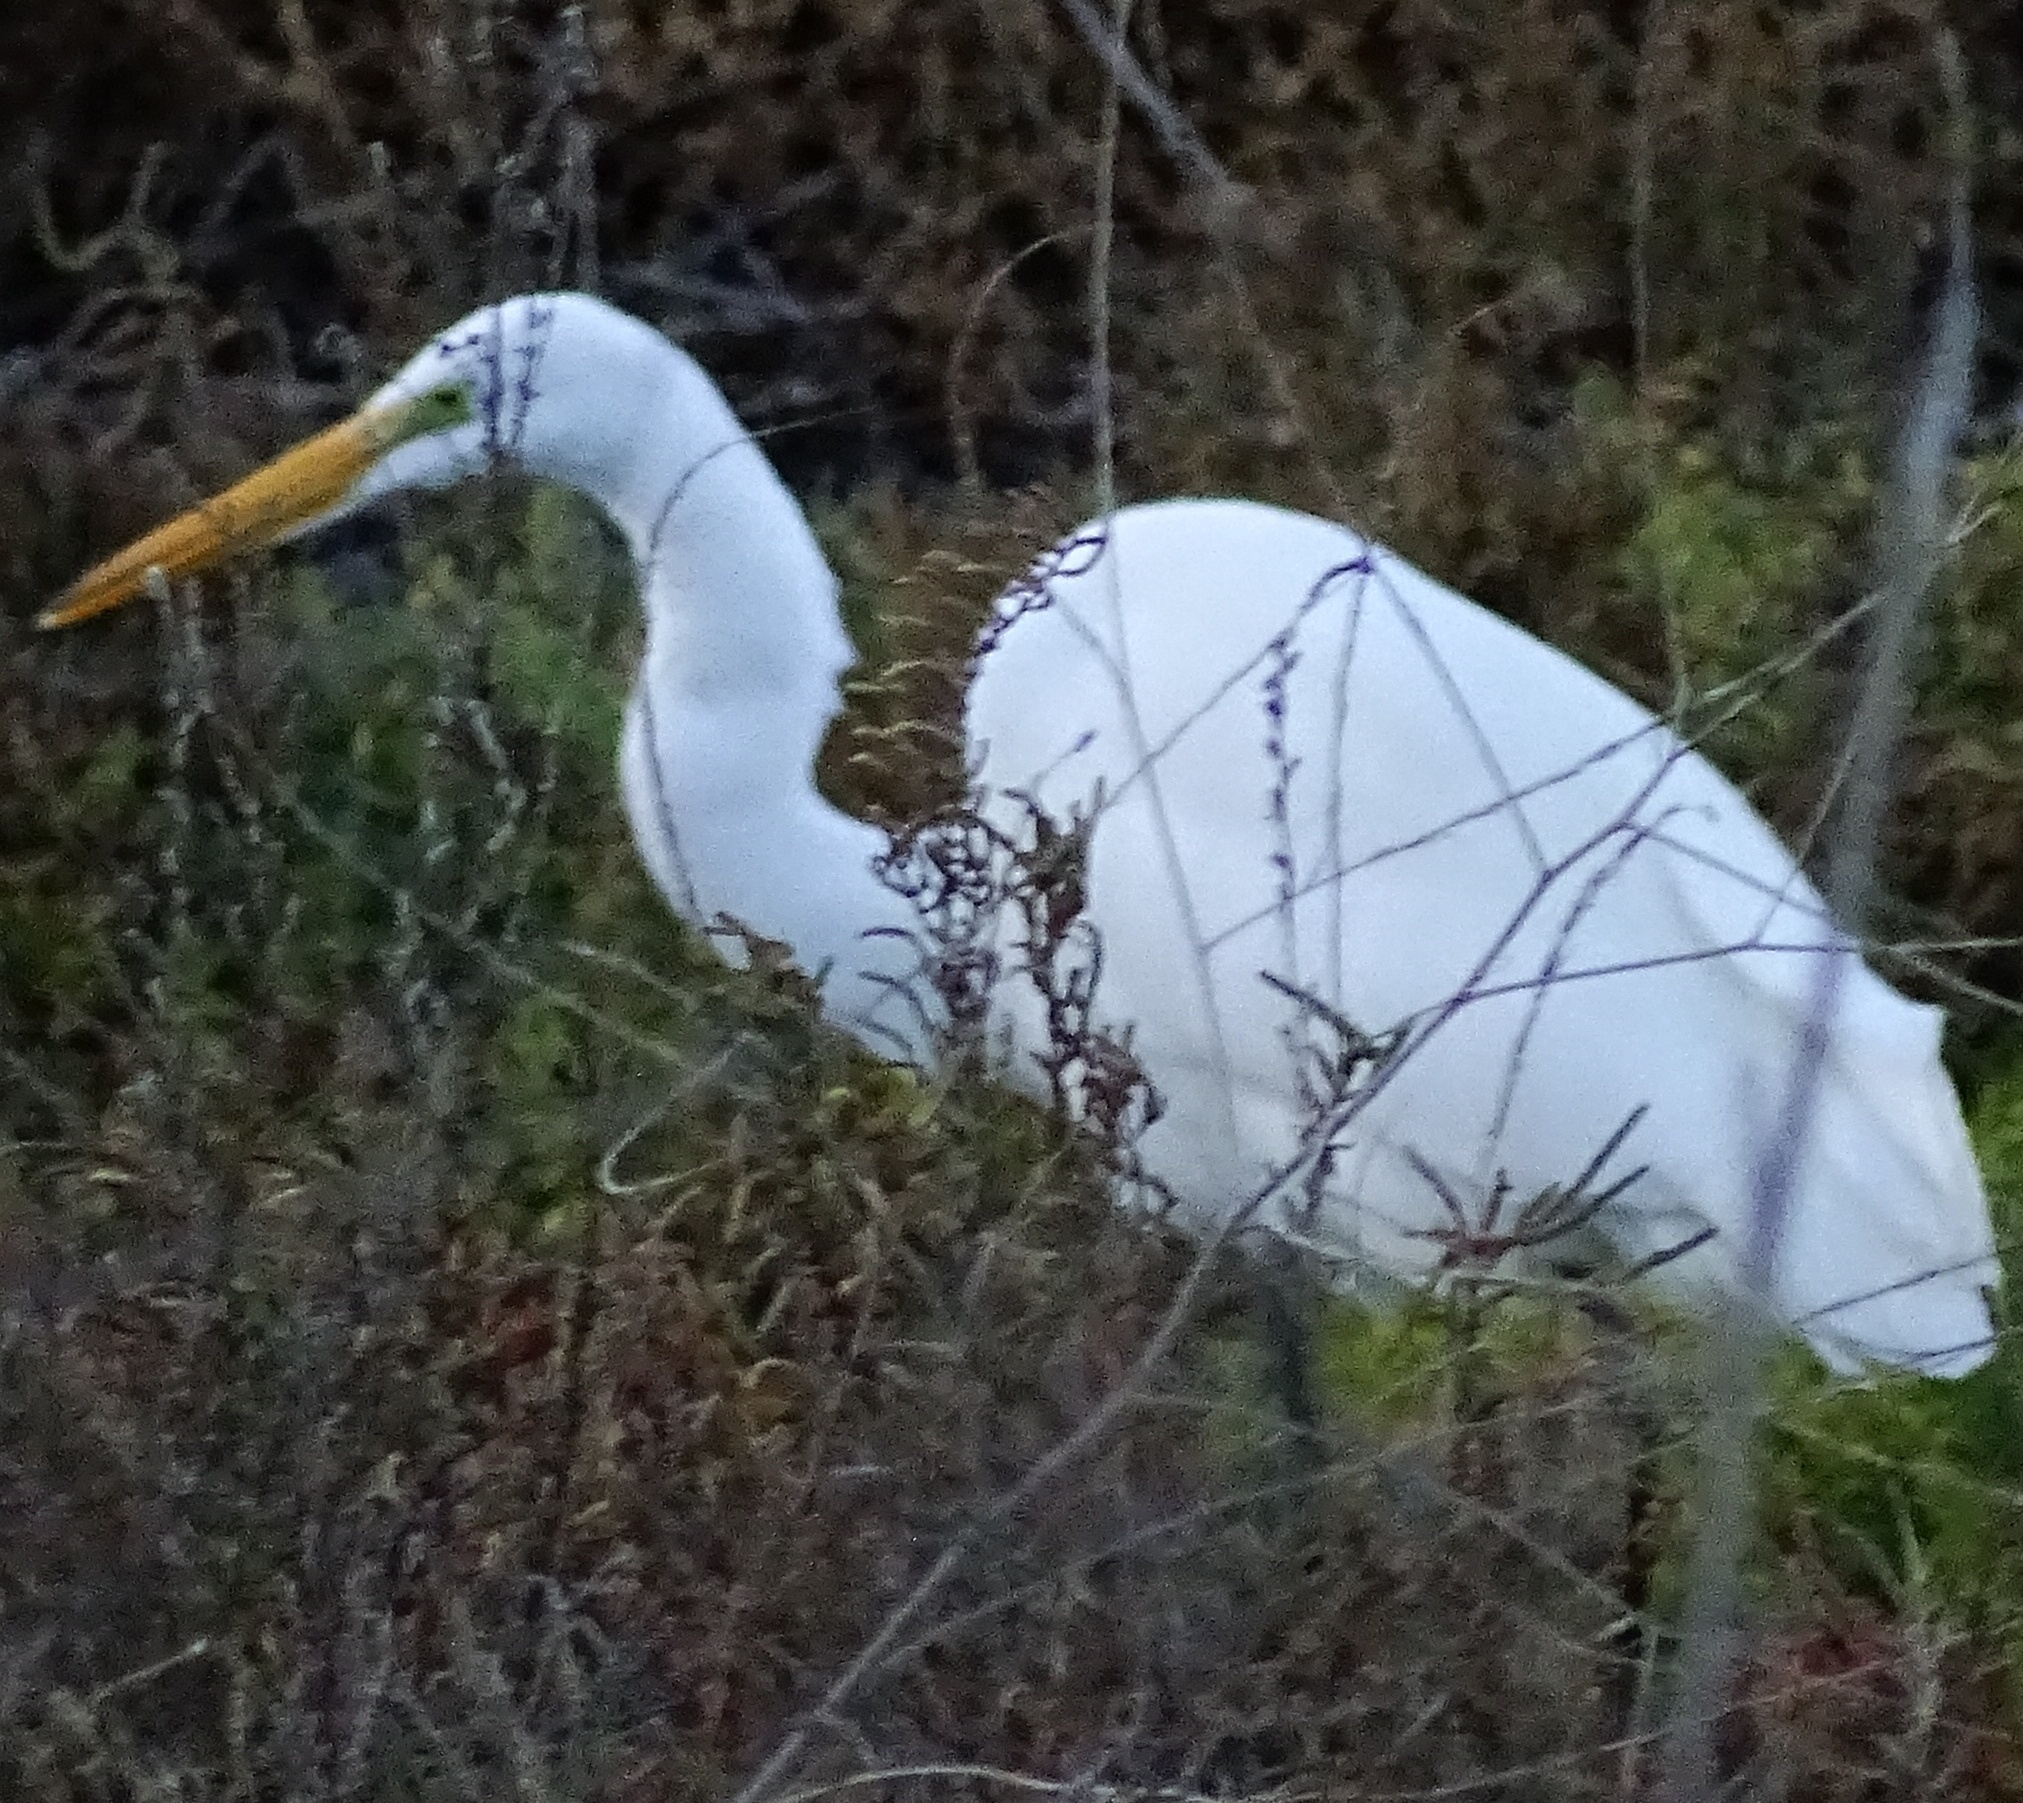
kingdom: Animalia
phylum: Chordata
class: Aves
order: Pelecaniformes
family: Ardeidae
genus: Ardea
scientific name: Ardea alba
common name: Great egret
